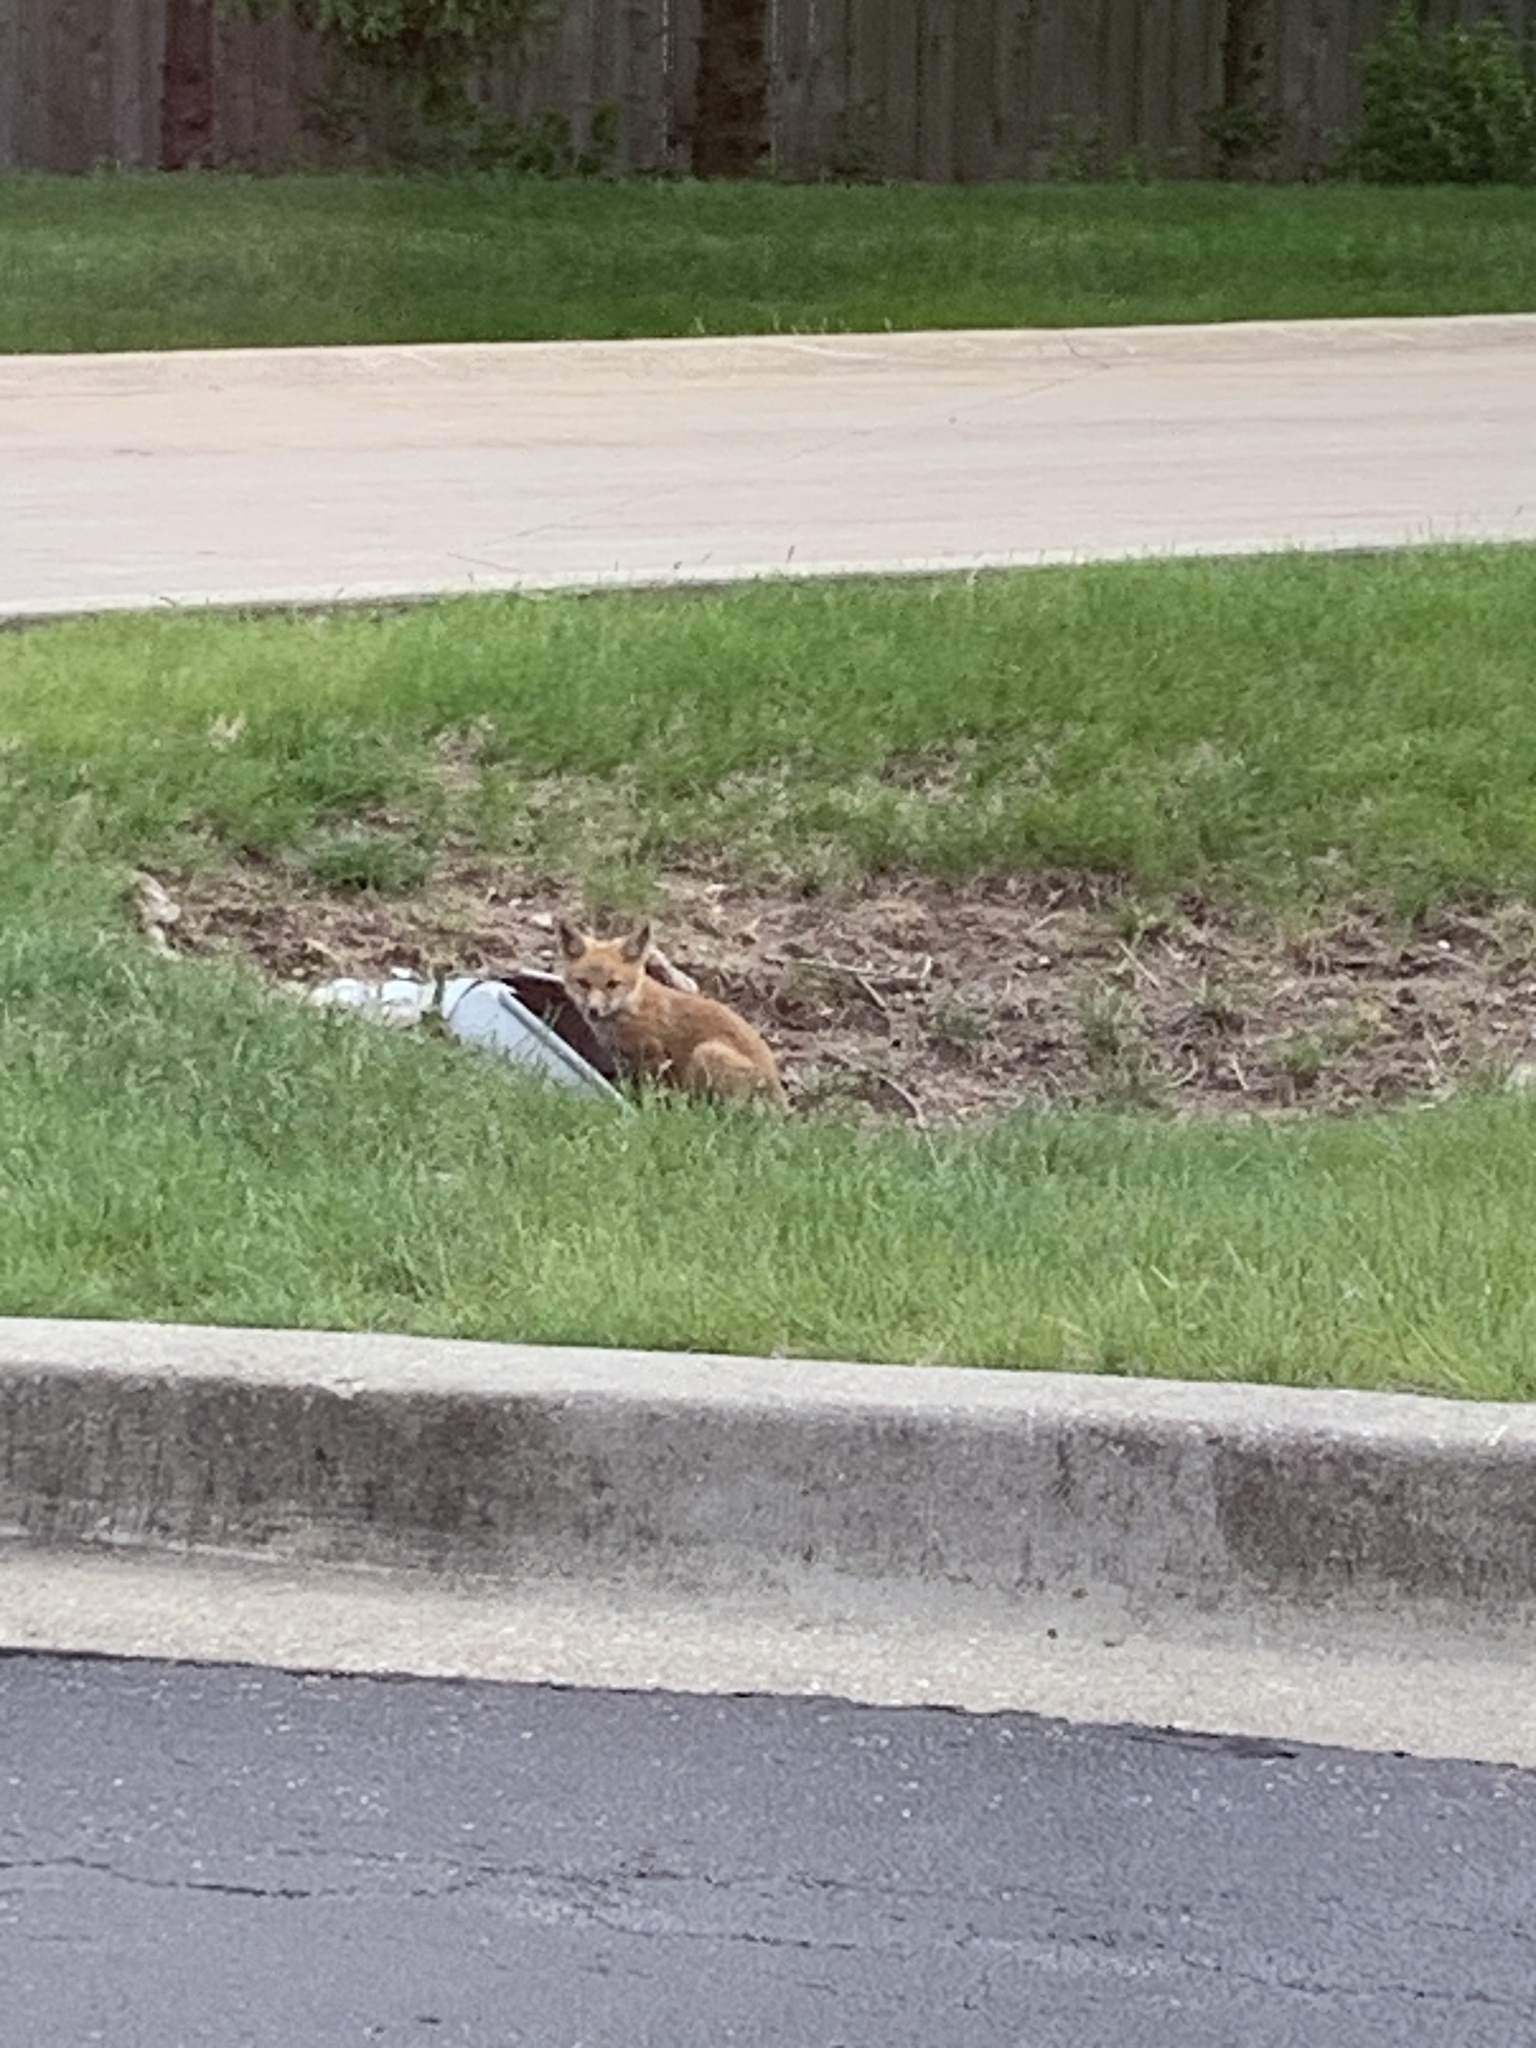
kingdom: Animalia
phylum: Chordata
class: Mammalia
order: Carnivora
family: Canidae
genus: Vulpes
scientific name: Vulpes vulpes
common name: Red fox
